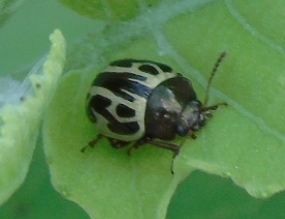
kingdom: Animalia
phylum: Arthropoda
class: Insecta
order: Coleoptera
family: Chrysomelidae
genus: Calligrapha
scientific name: Calligrapha
